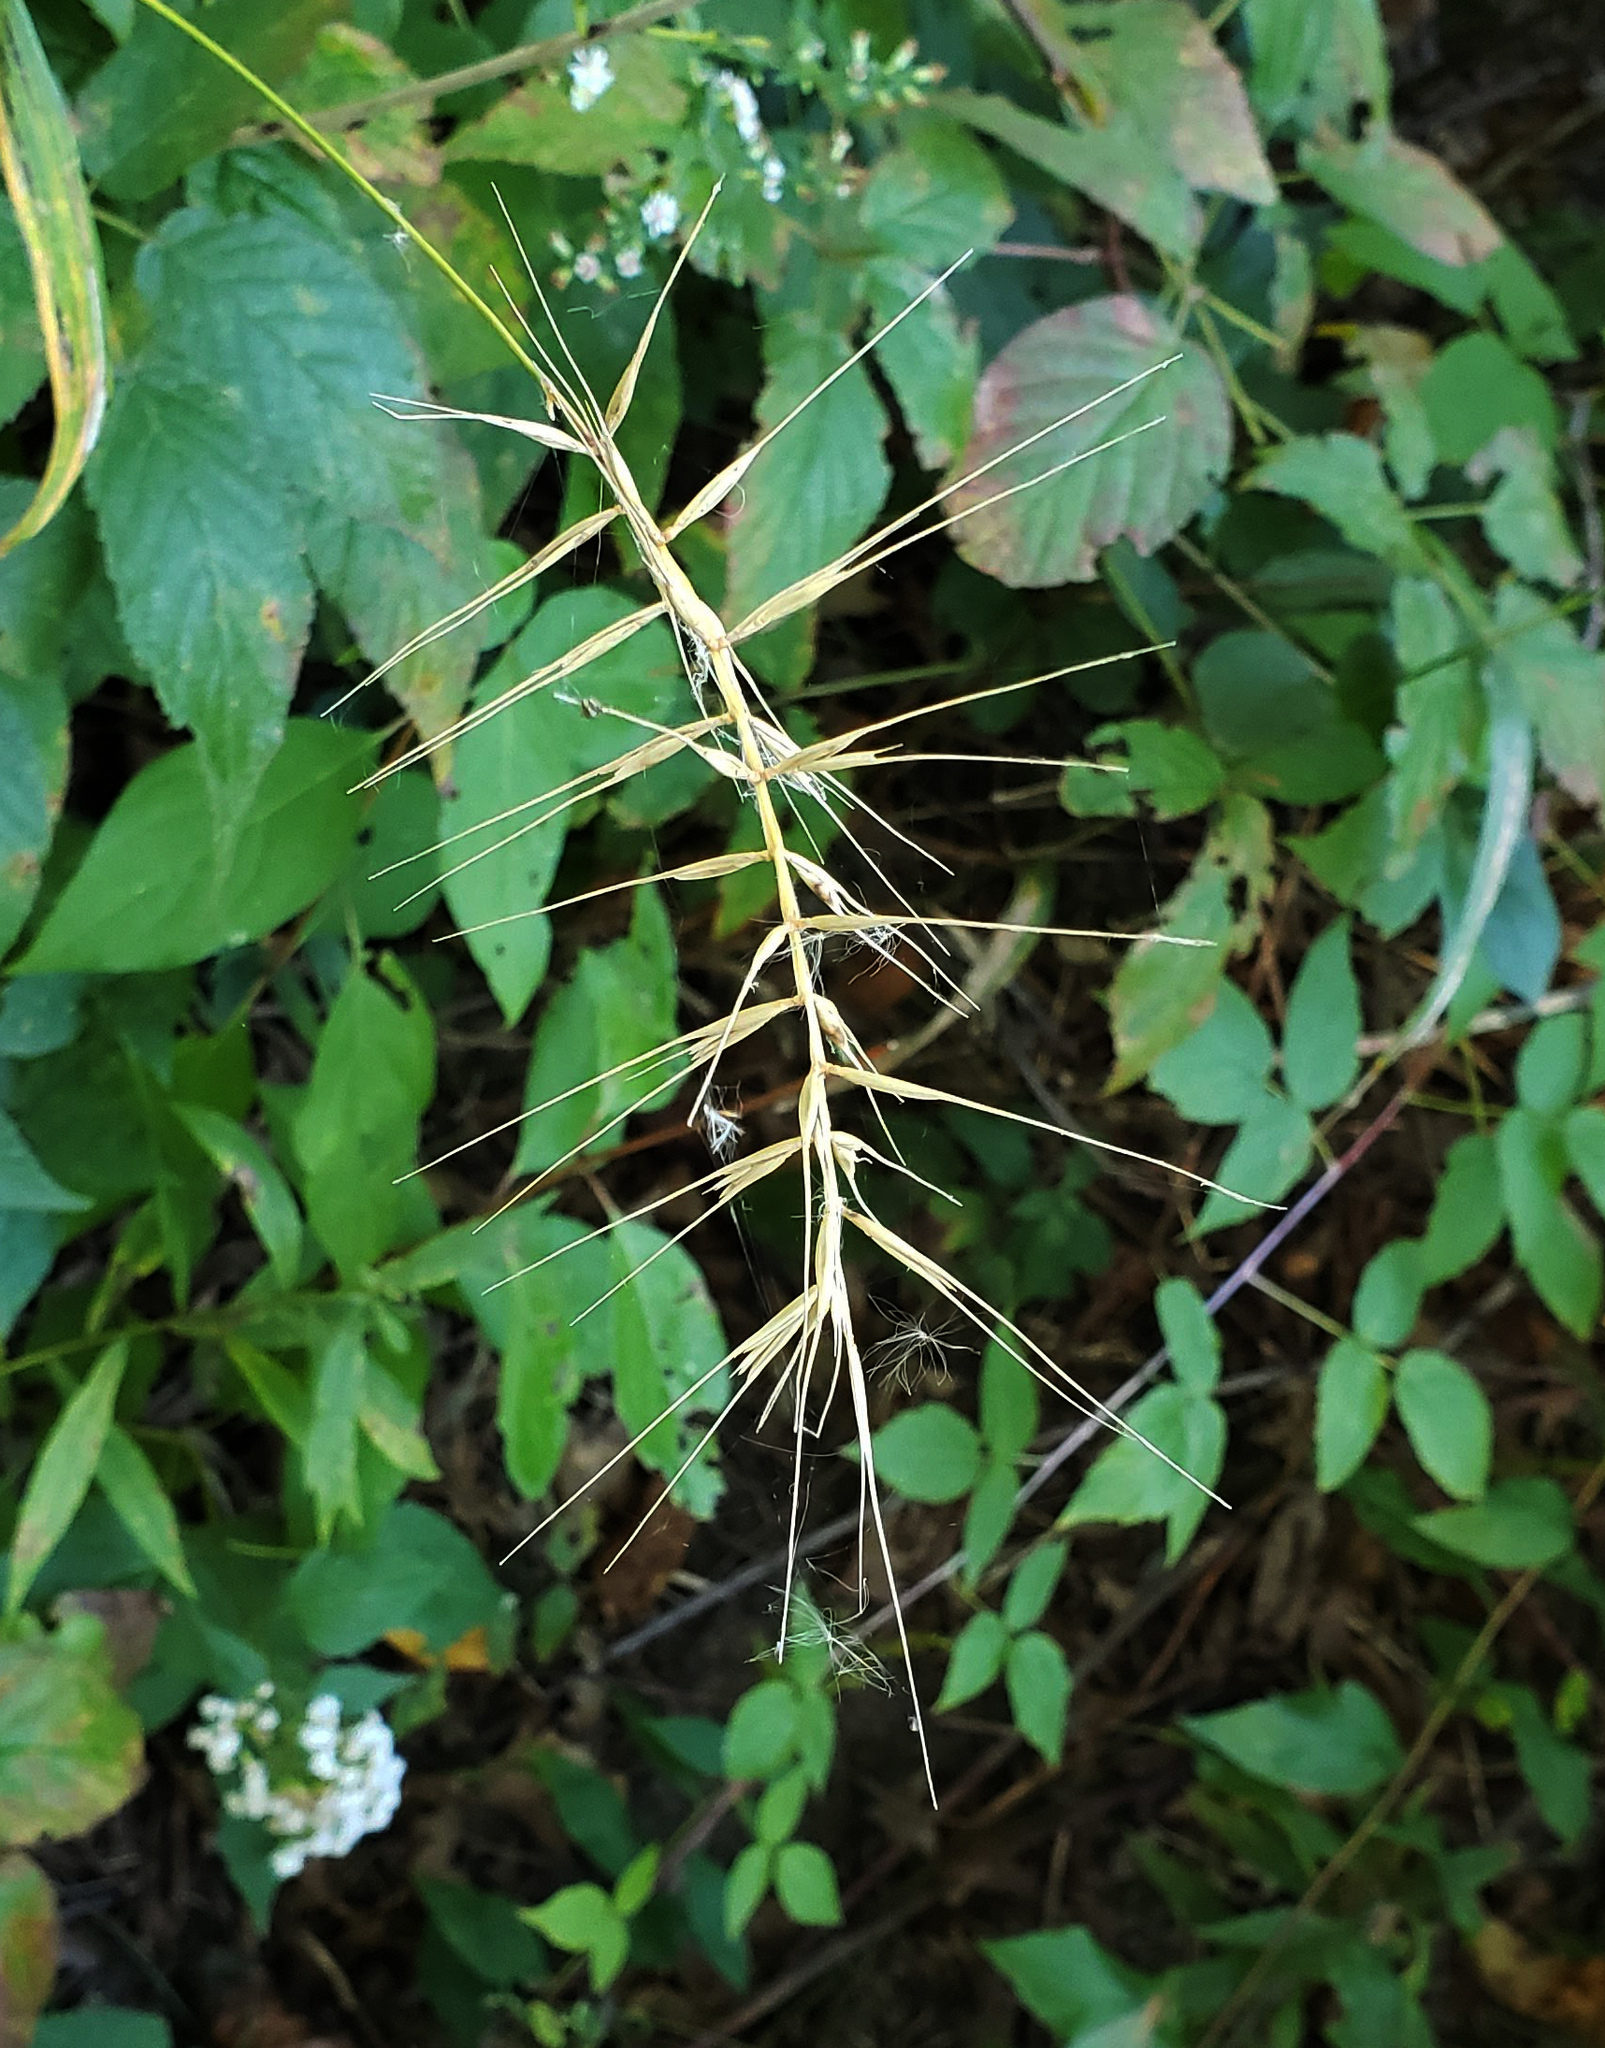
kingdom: Plantae
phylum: Tracheophyta
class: Liliopsida
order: Poales
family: Poaceae
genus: Elymus
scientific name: Elymus hystrix
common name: Bottlebrush grass
